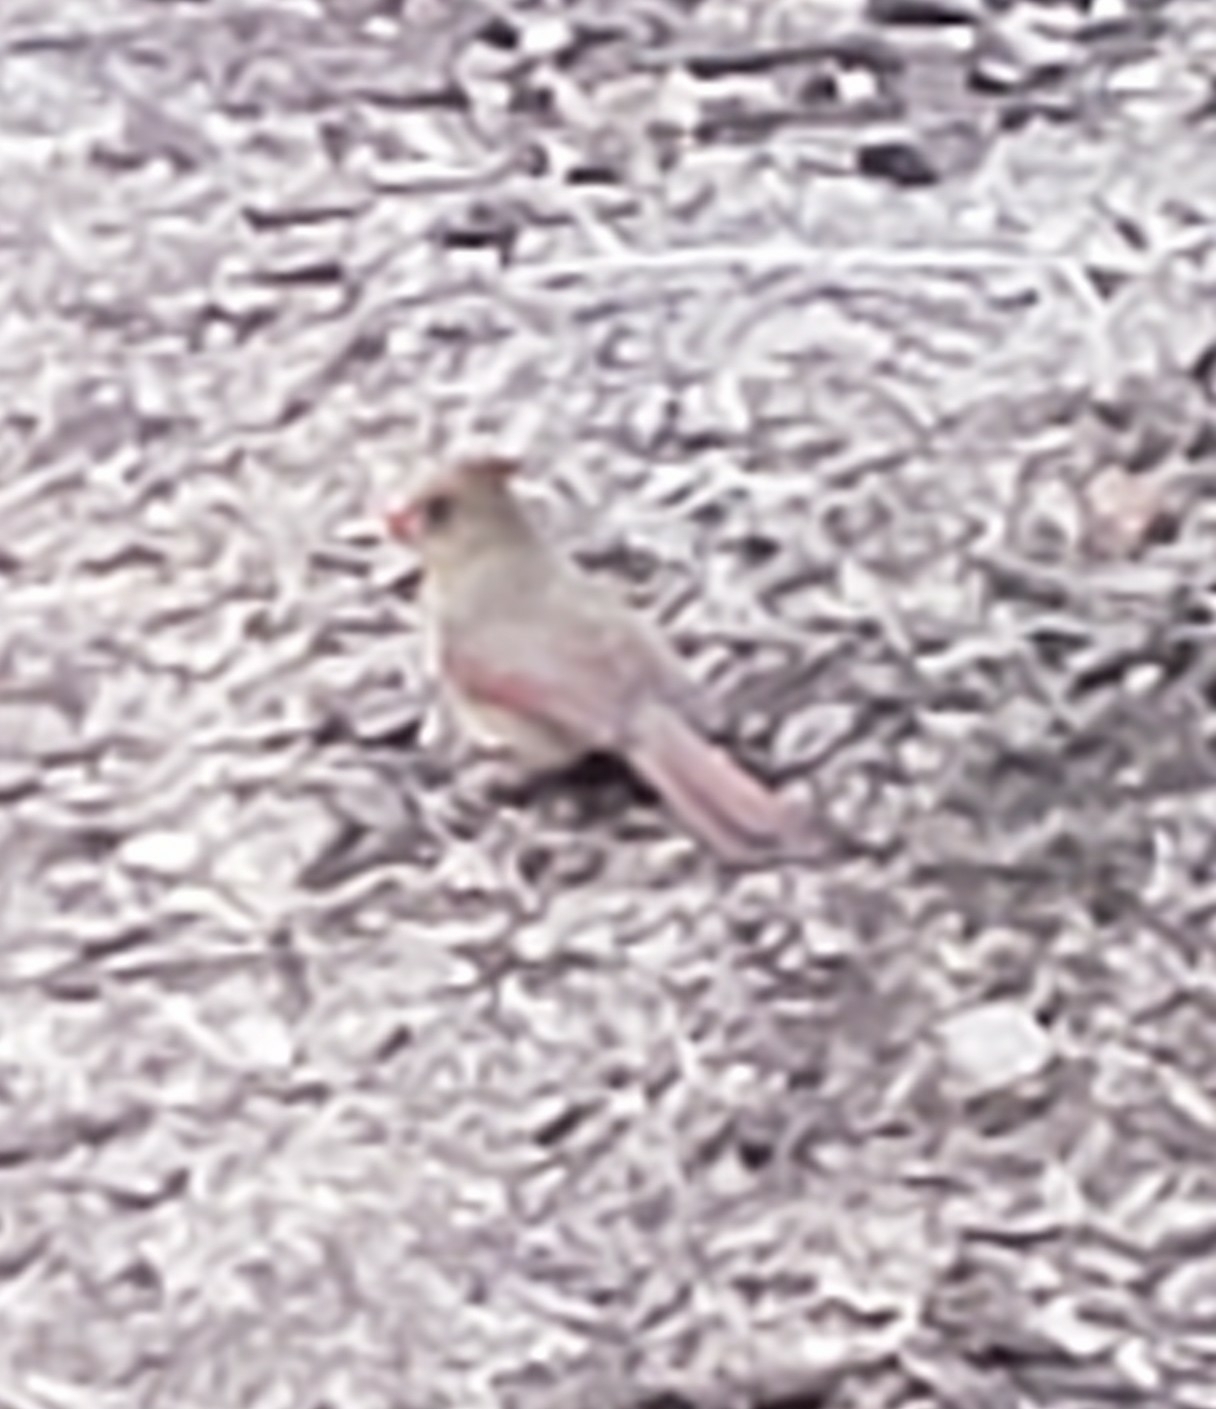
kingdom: Animalia
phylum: Chordata
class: Aves
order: Passeriformes
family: Cardinalidae
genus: Cardinalis
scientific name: Cardinalis cardinalis
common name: Northern cardinal
